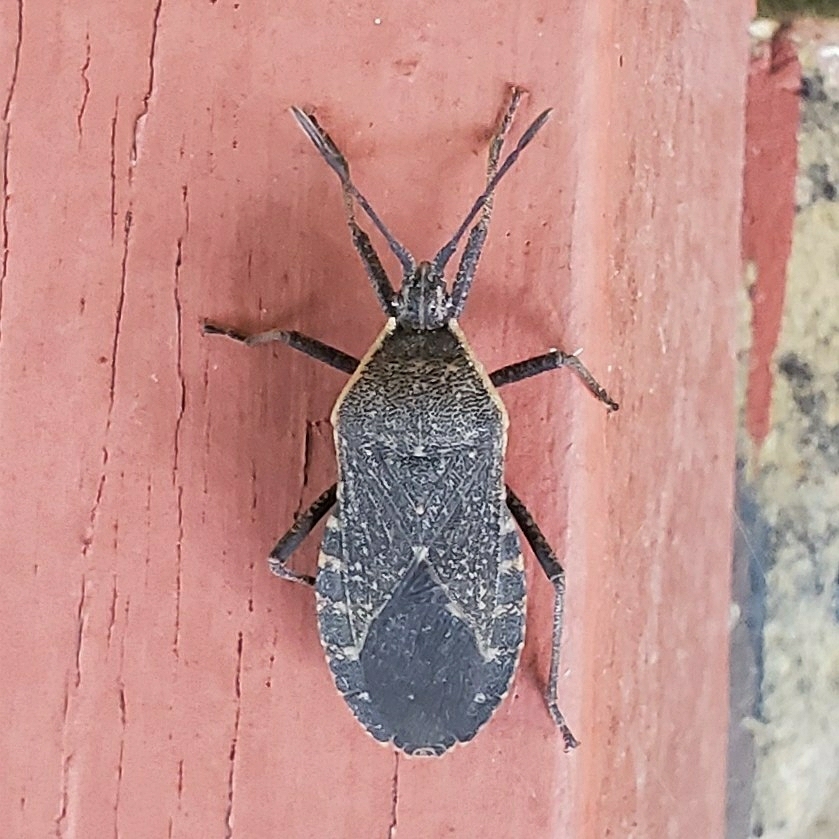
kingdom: Animalia
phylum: Arthropoda
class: Insecta
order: Hemiptera
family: Coreidae
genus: Anasa
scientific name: Anasa tristis
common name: Squash bug
